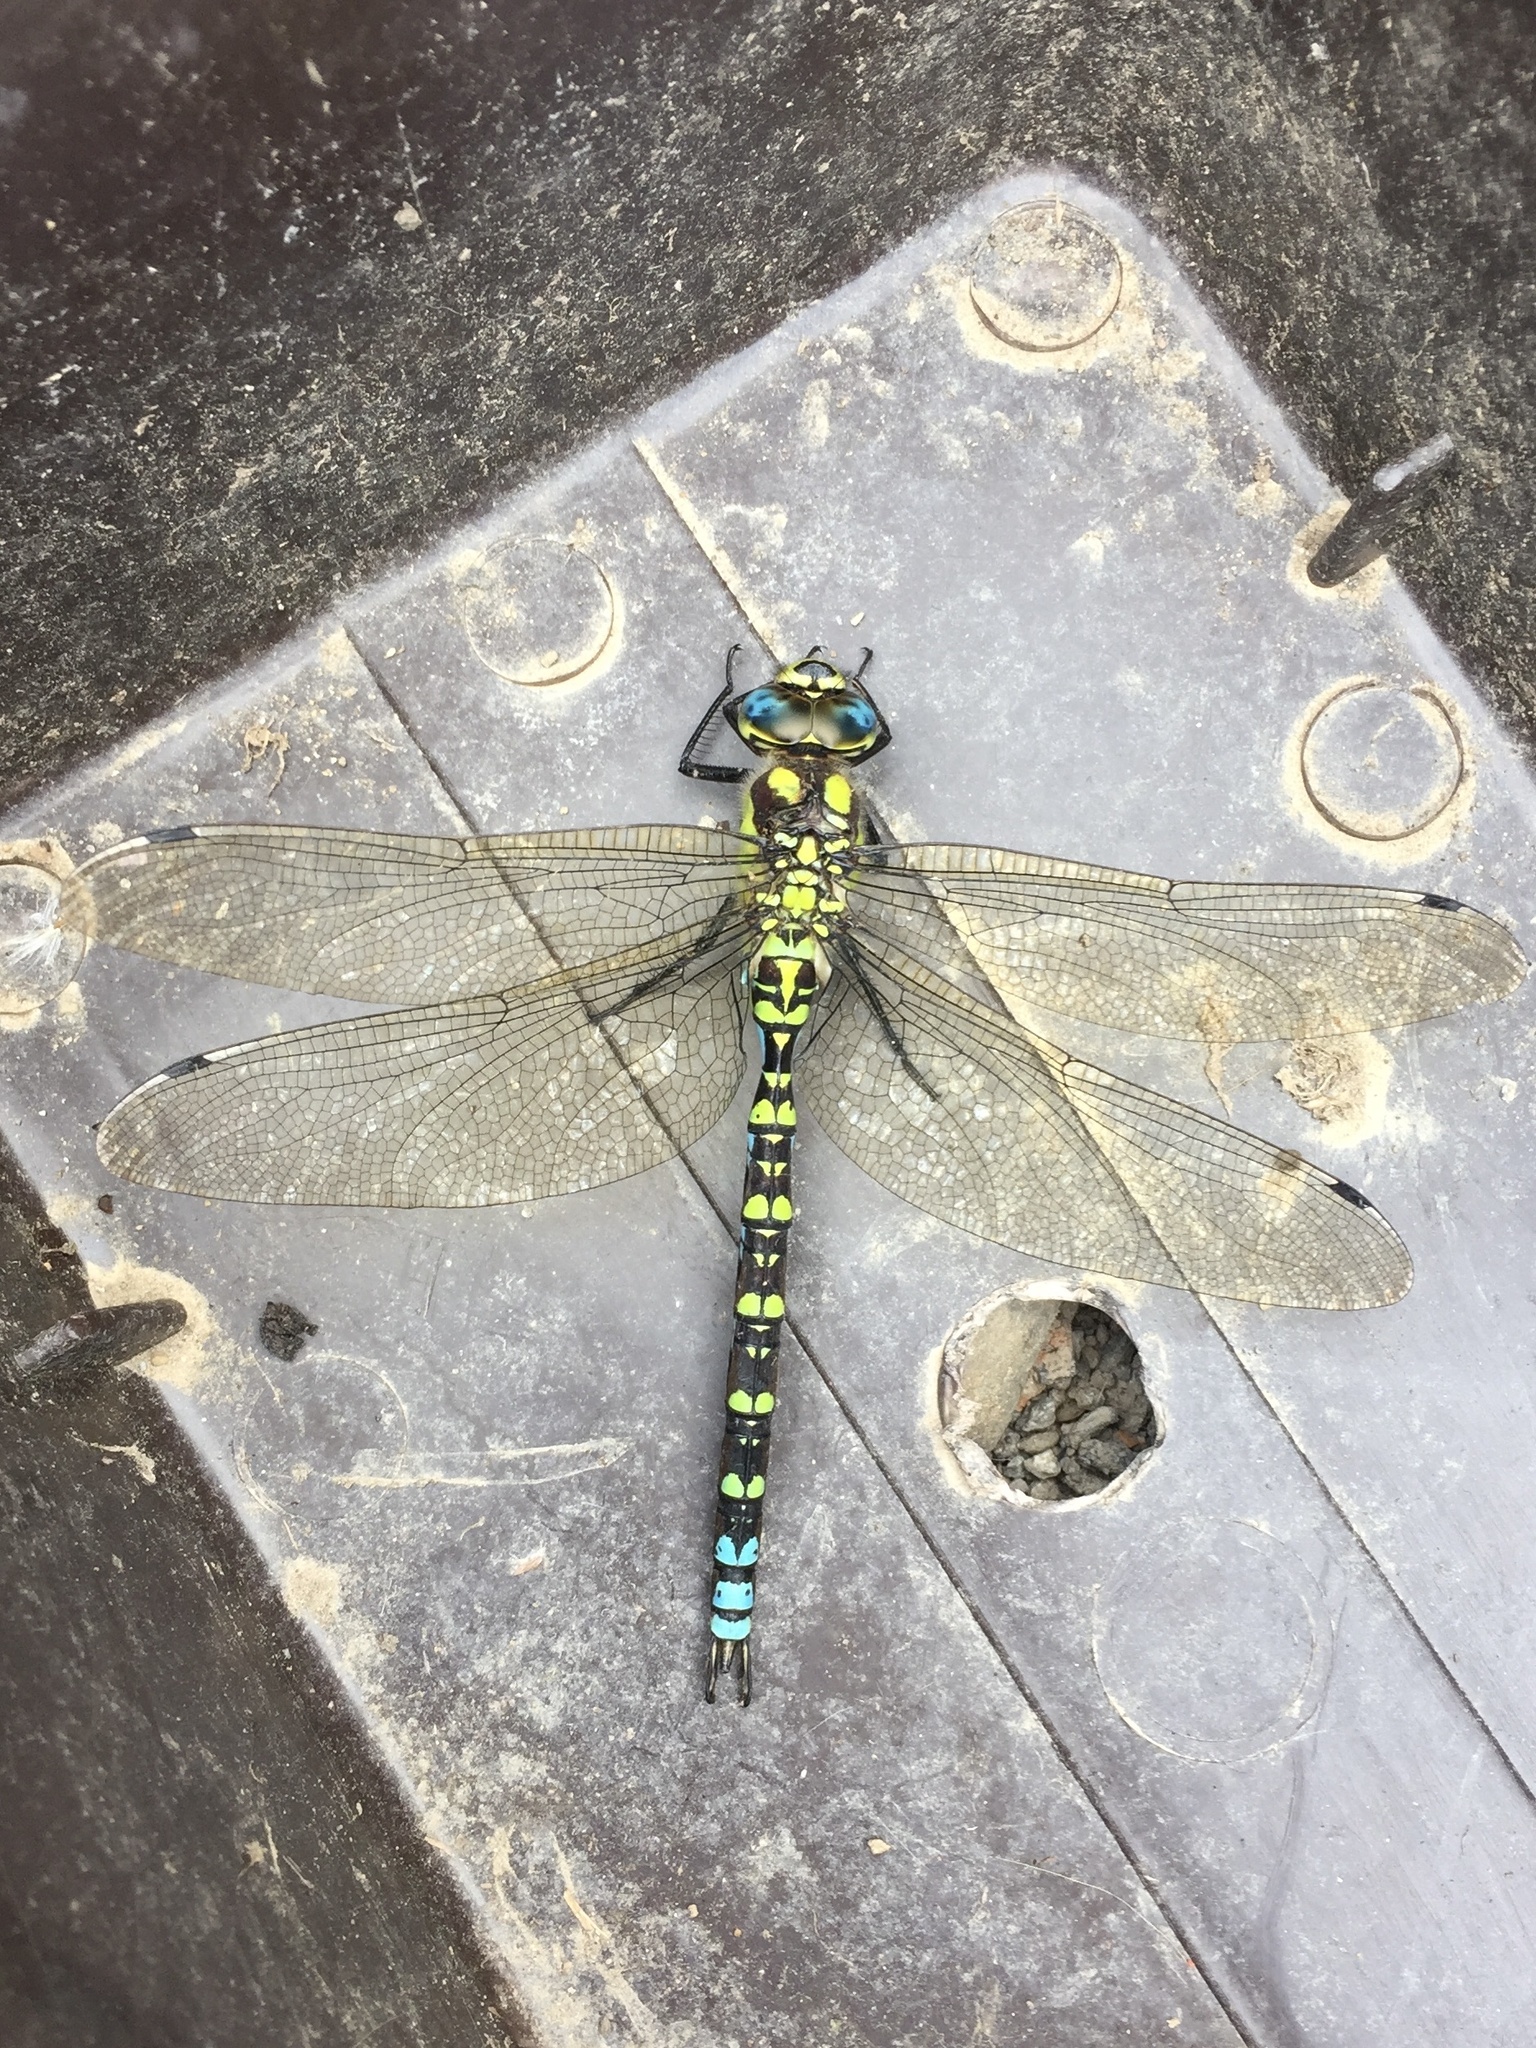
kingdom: Animalia
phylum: Arthropoda
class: Insecta
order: Odonata
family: Aeshnidae
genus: Aeshna
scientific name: Aeshna cyanea
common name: Southern hawker
